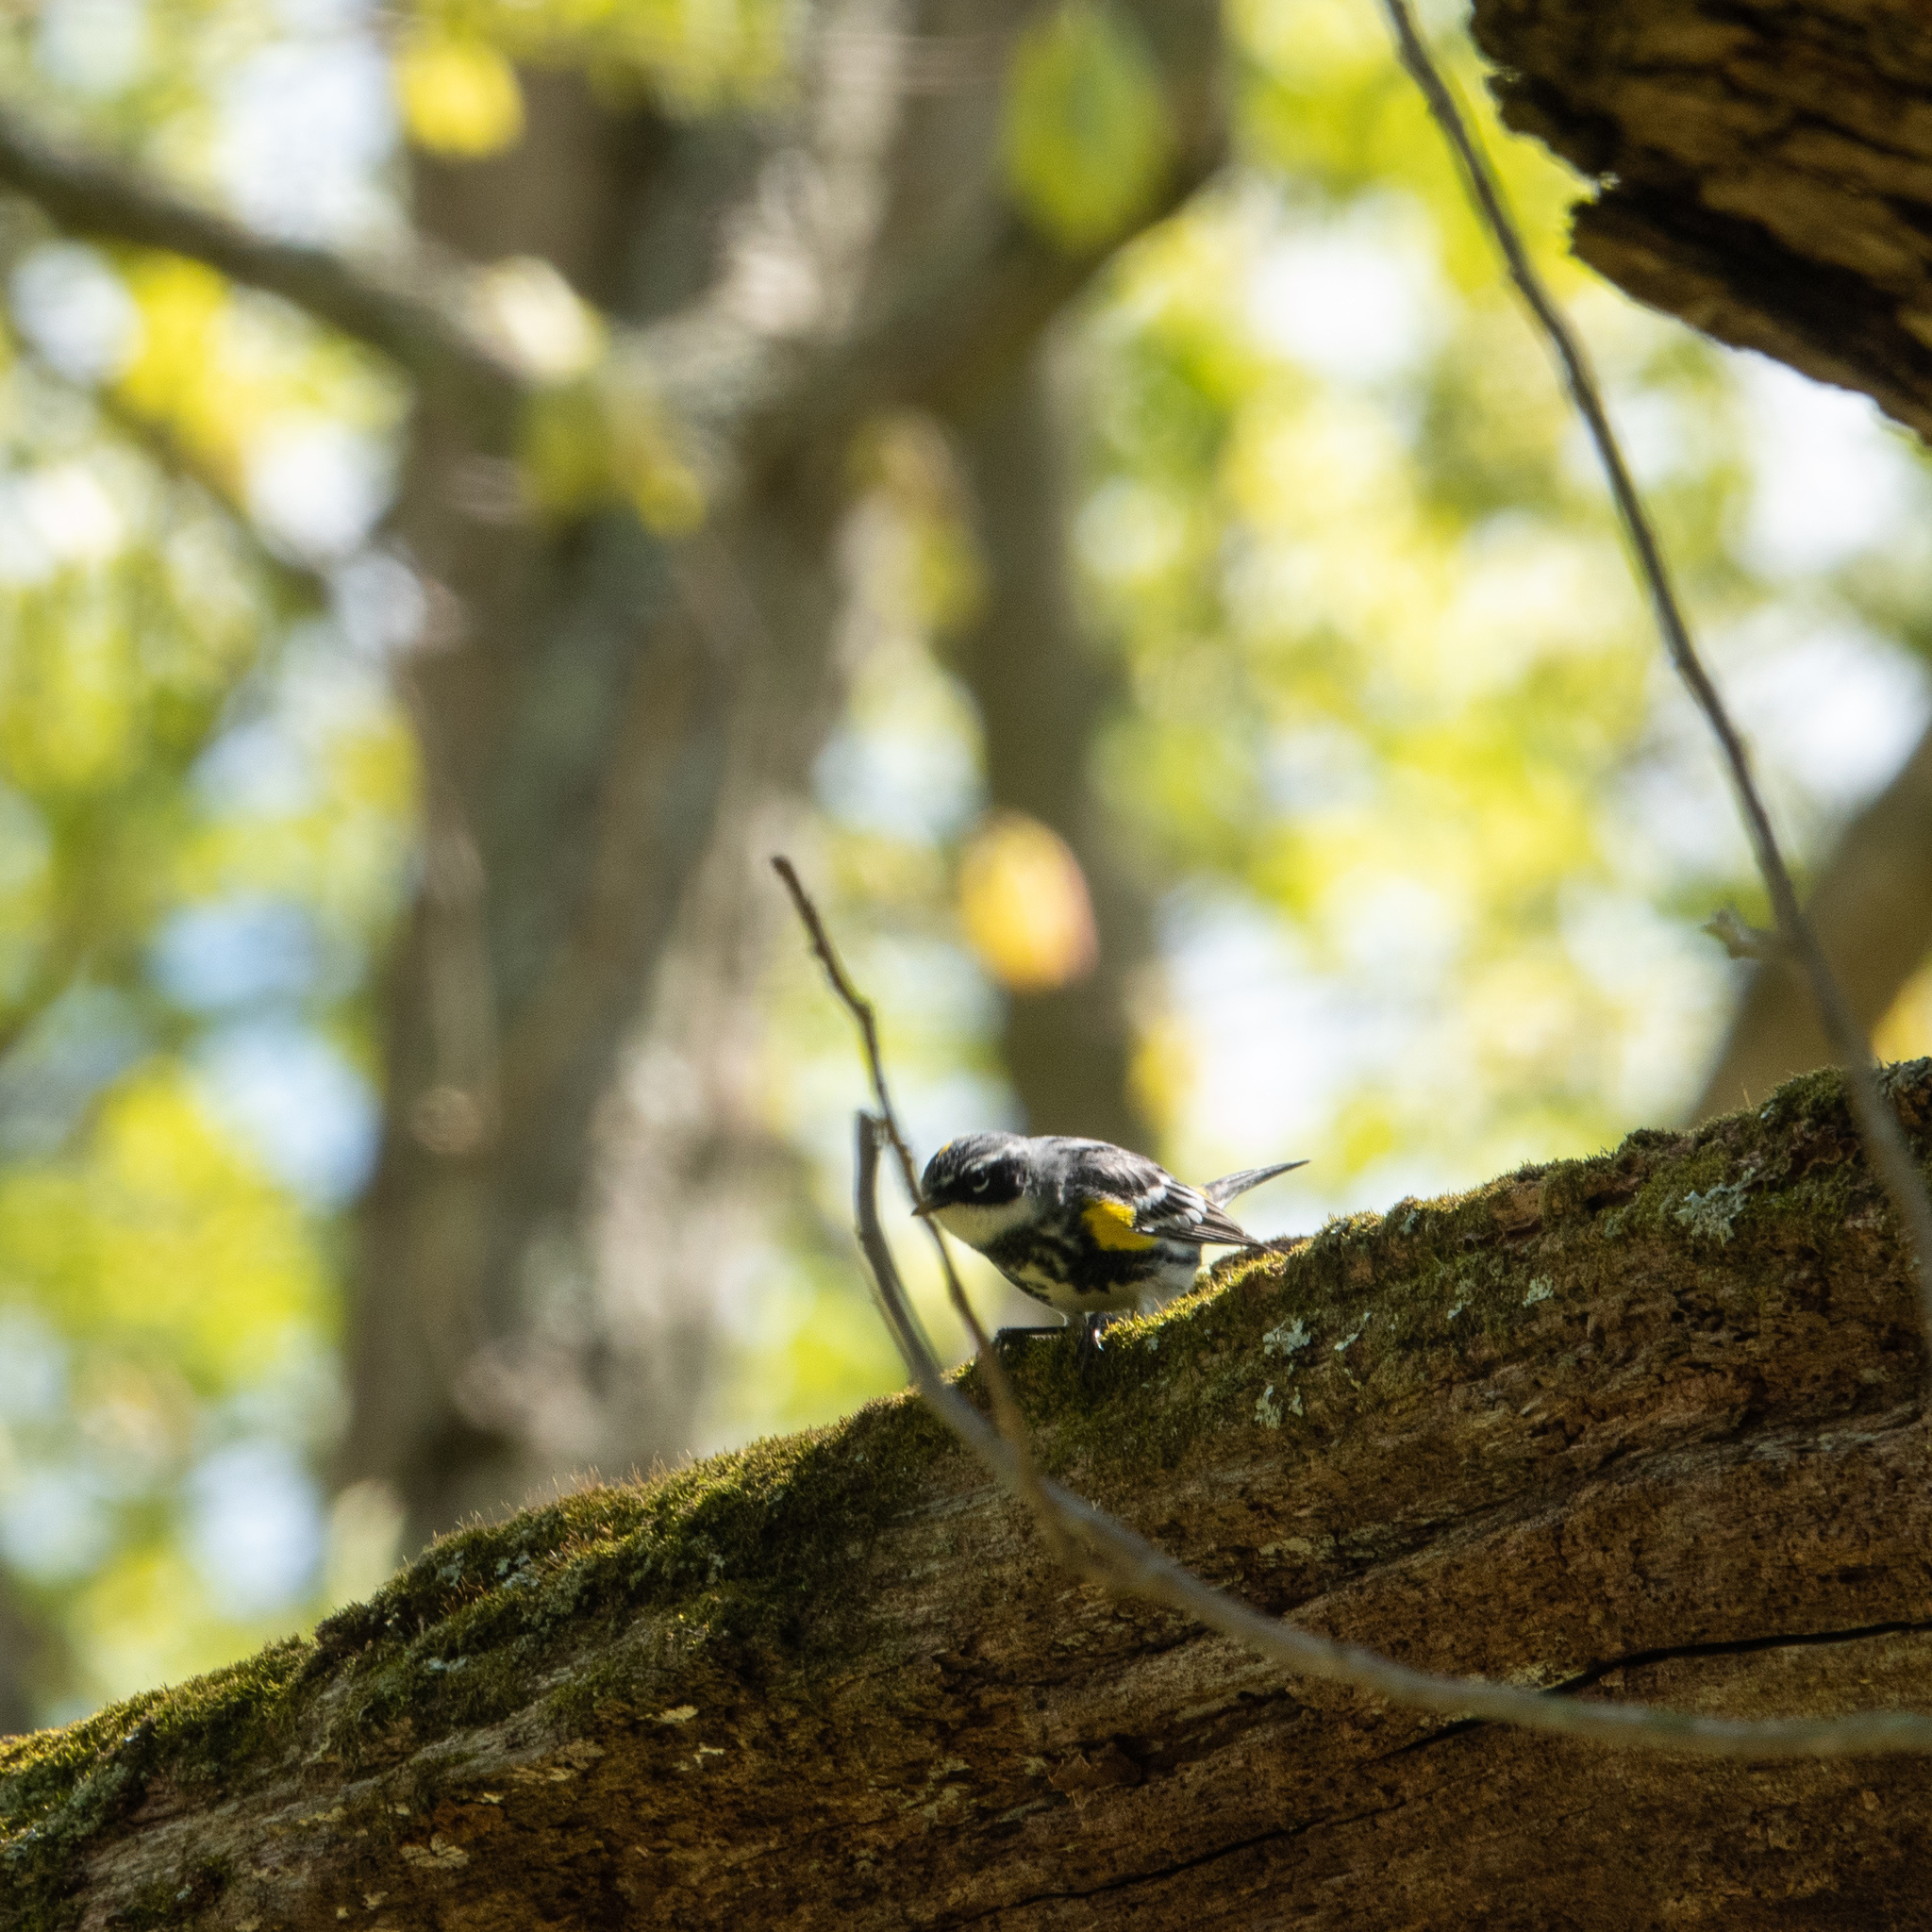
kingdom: Animalia
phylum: Chordata
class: Aves
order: Passeriformes
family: Parulidae
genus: Setophaga
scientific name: Setophaga coronata
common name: Myrtle warbler
